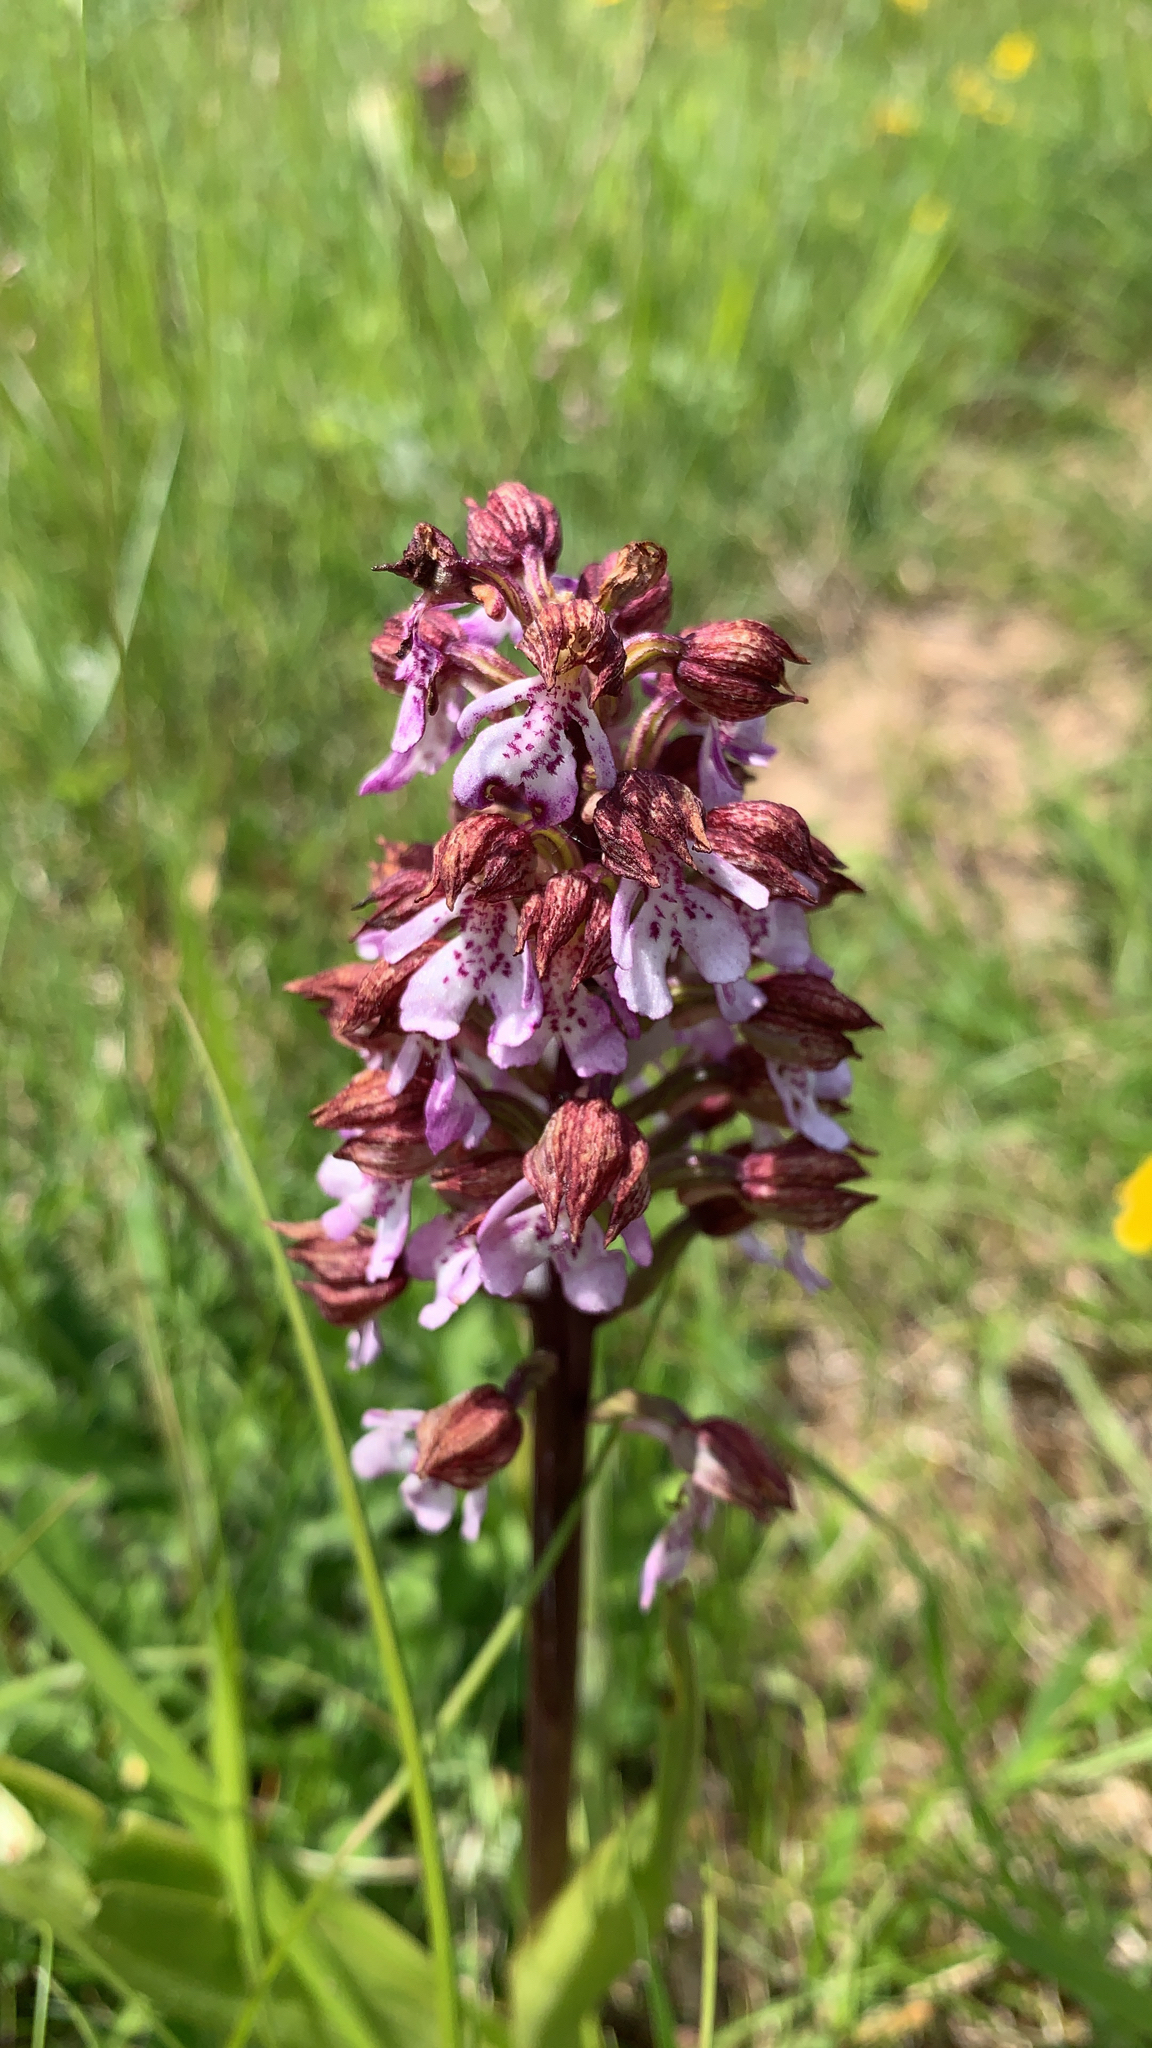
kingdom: Plantae
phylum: Tracheophyta
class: Liliopsida
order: Asparagales
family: Orchidaceae
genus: Orchis
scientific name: Orchis purpurea
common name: Lady orchid
